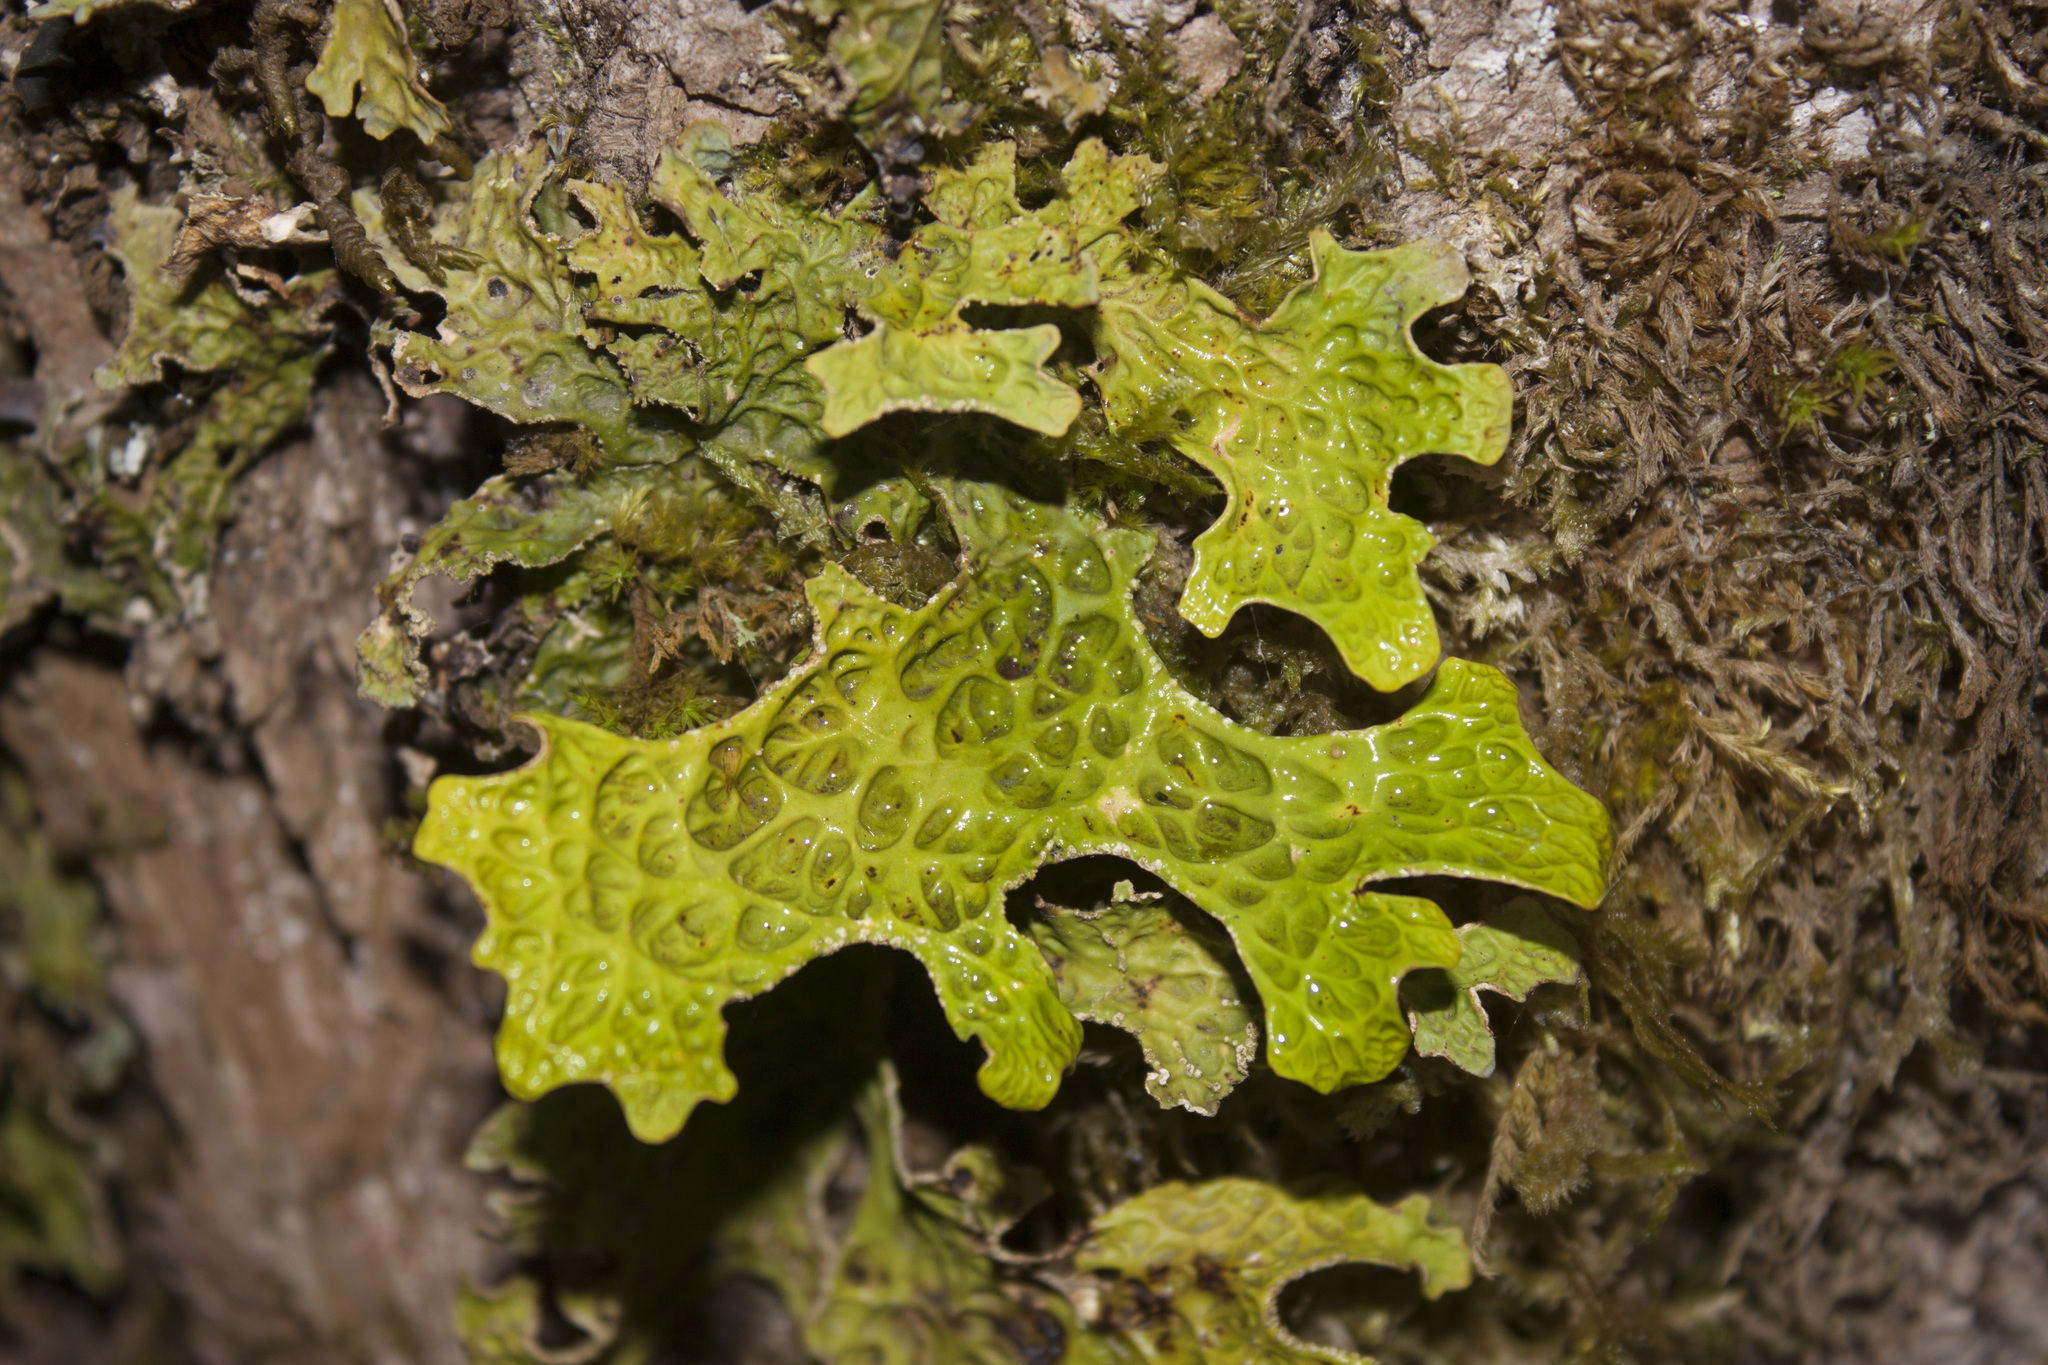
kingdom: Fungi
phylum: Ascomycota
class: Lecanoromycetes
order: Peltigerales
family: Lobariaceae
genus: Lobaria
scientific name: Lobaria pulmonaria
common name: Lungwort
